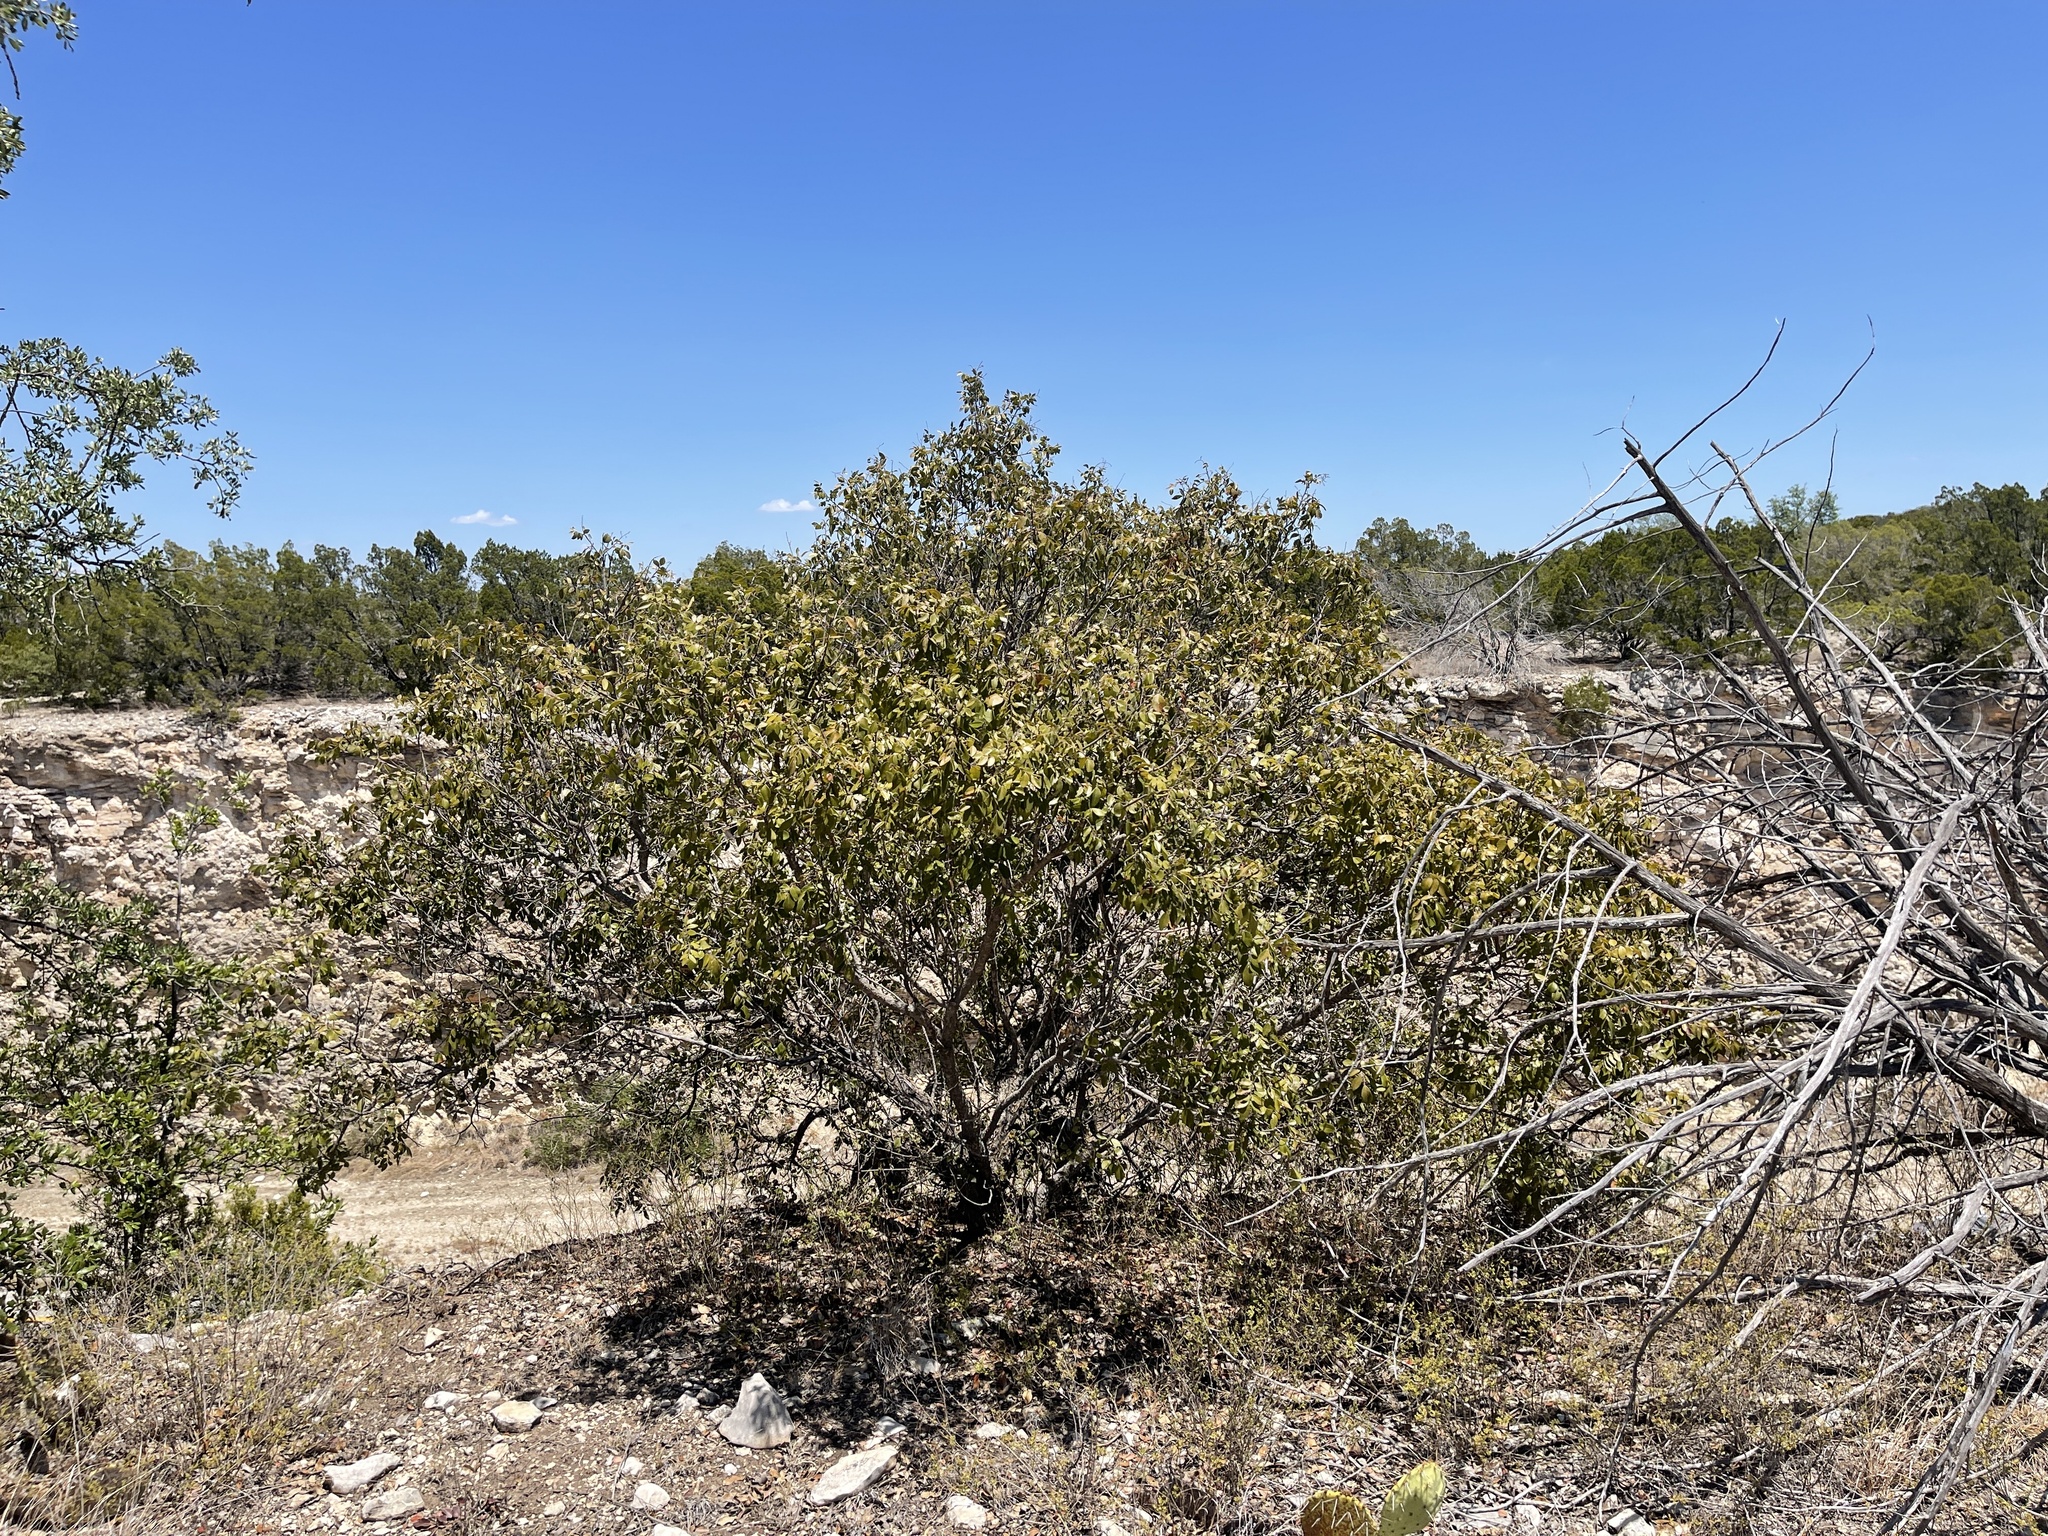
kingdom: Plantae
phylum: Tracheophyta
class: Magnoliopsida
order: Sapindales
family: Anacardiaceae
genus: Rhus
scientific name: Rhus virens
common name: Evergreen sumac
